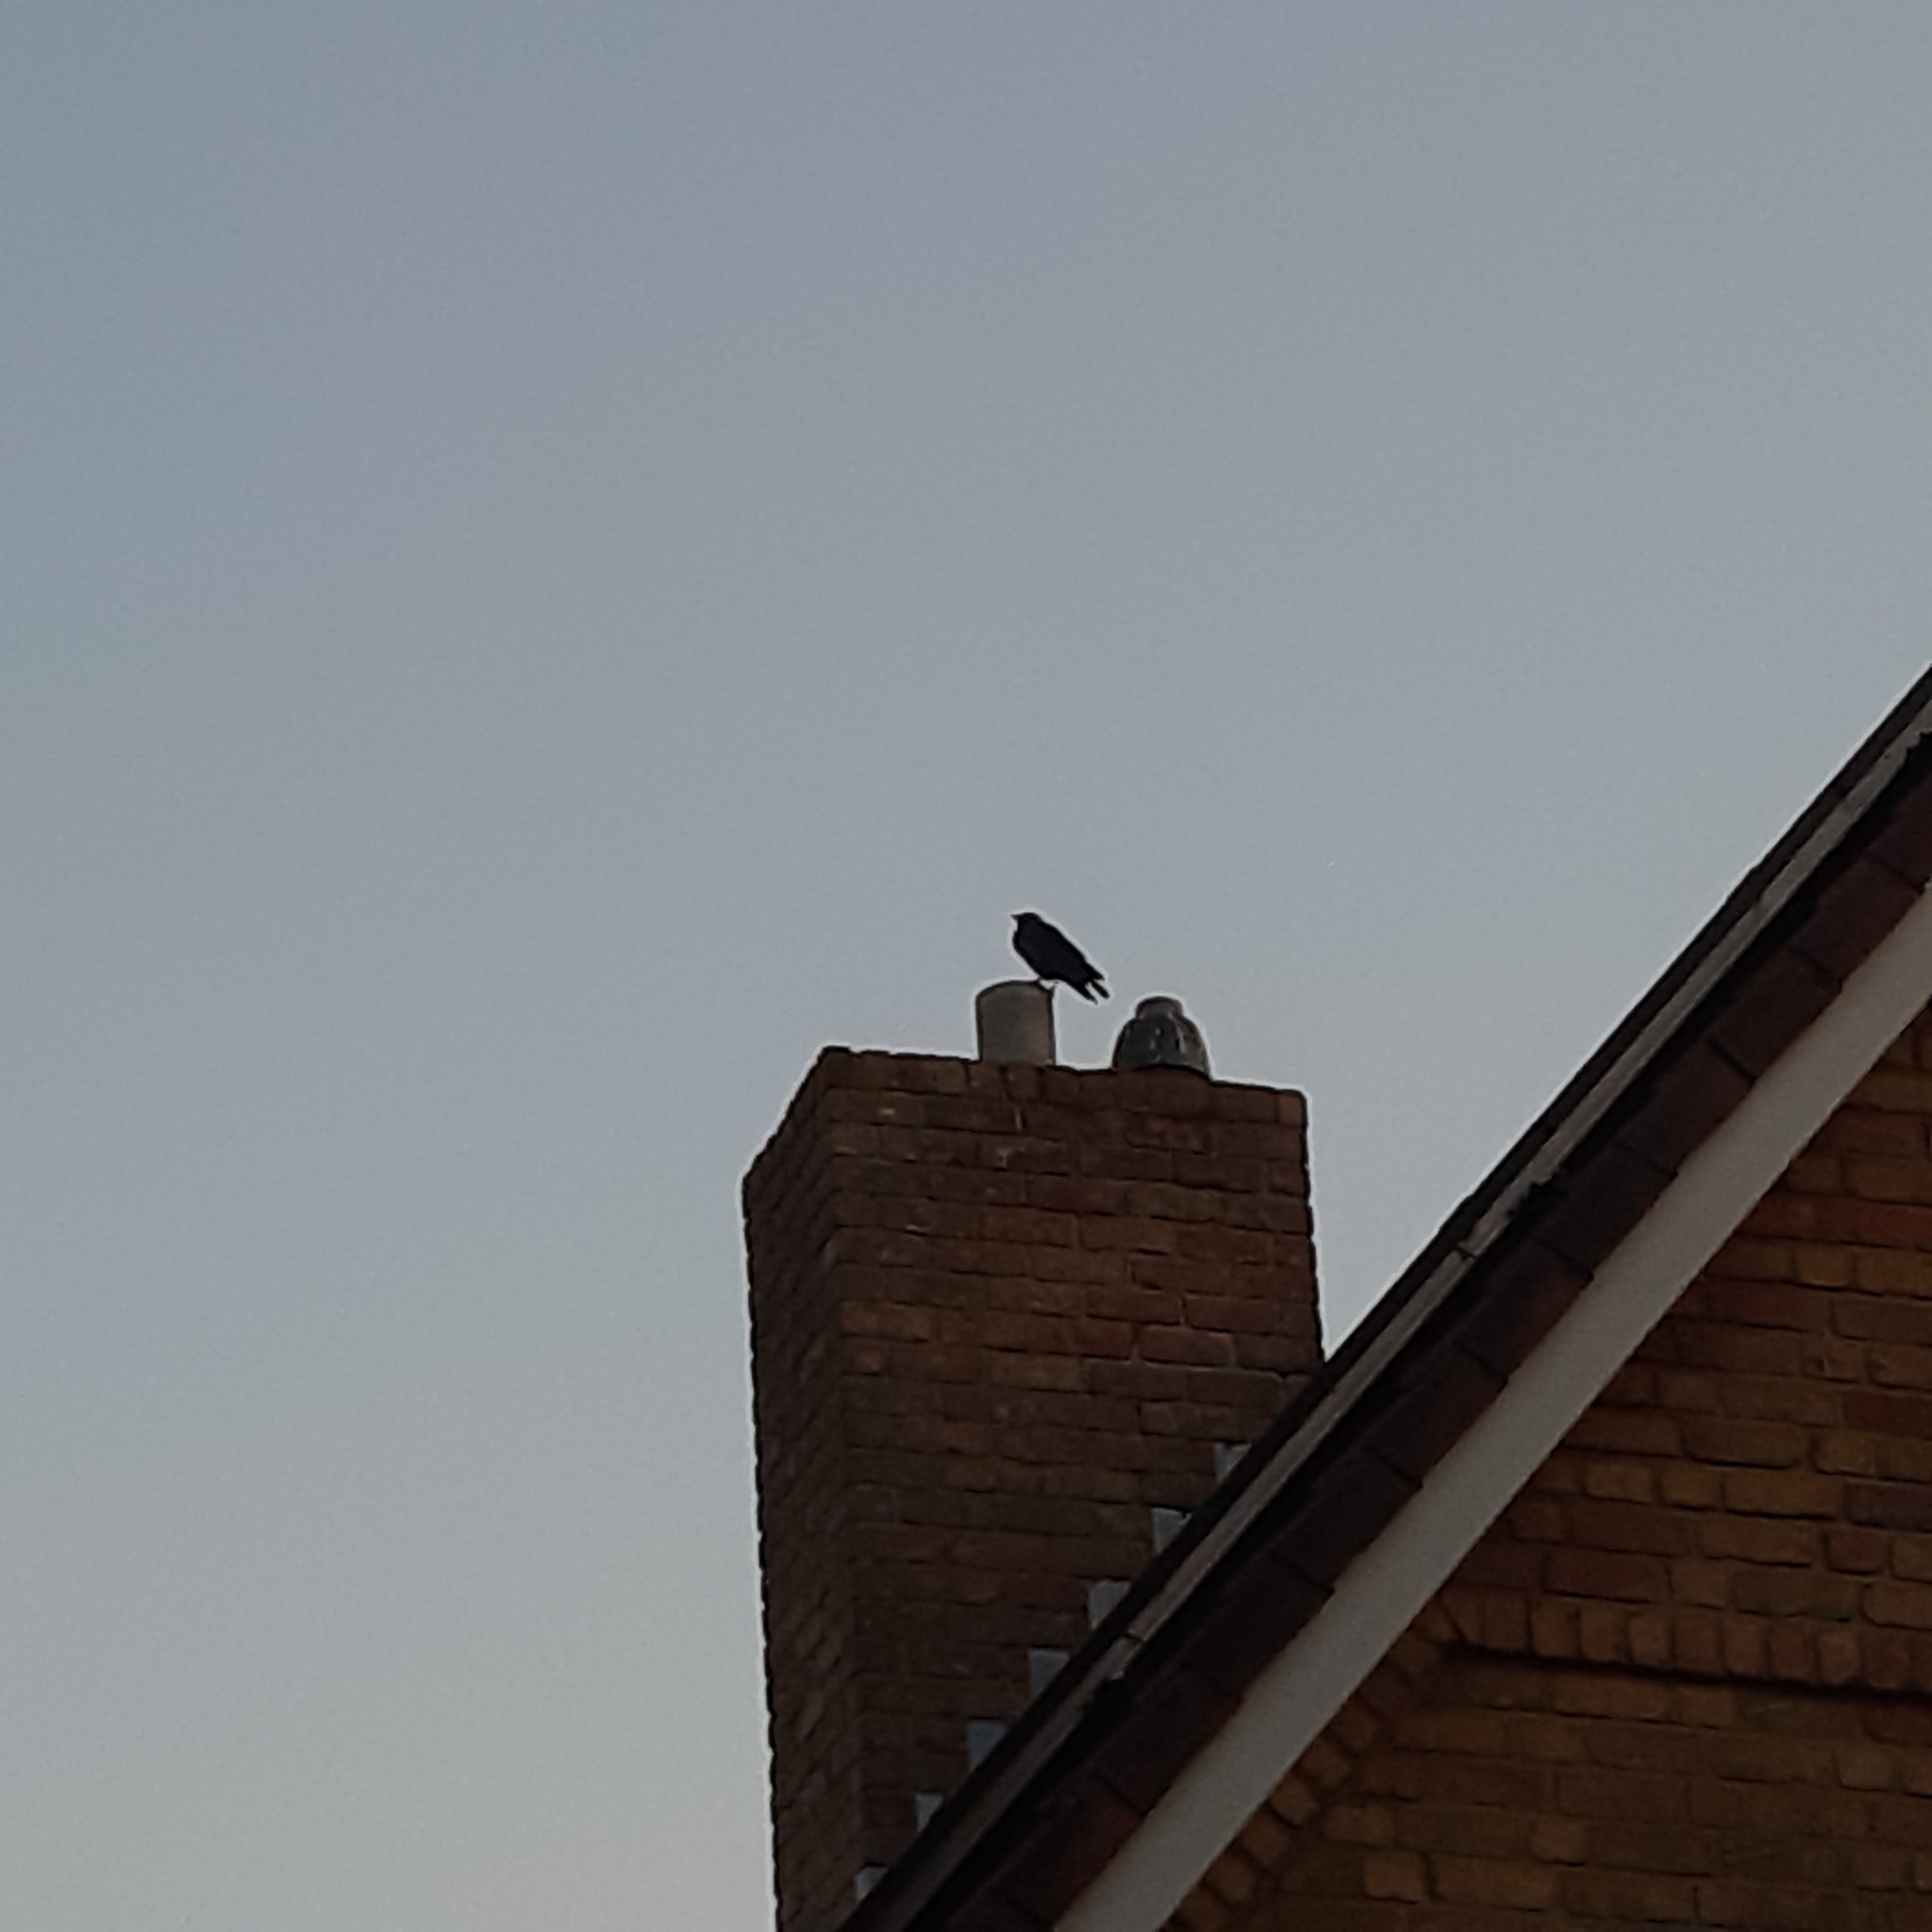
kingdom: Animalia
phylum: Chordata
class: Aves
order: Passeriformes
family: Corvidae
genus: Coloeus
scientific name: Coloeus monedula
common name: Western jackdaw
